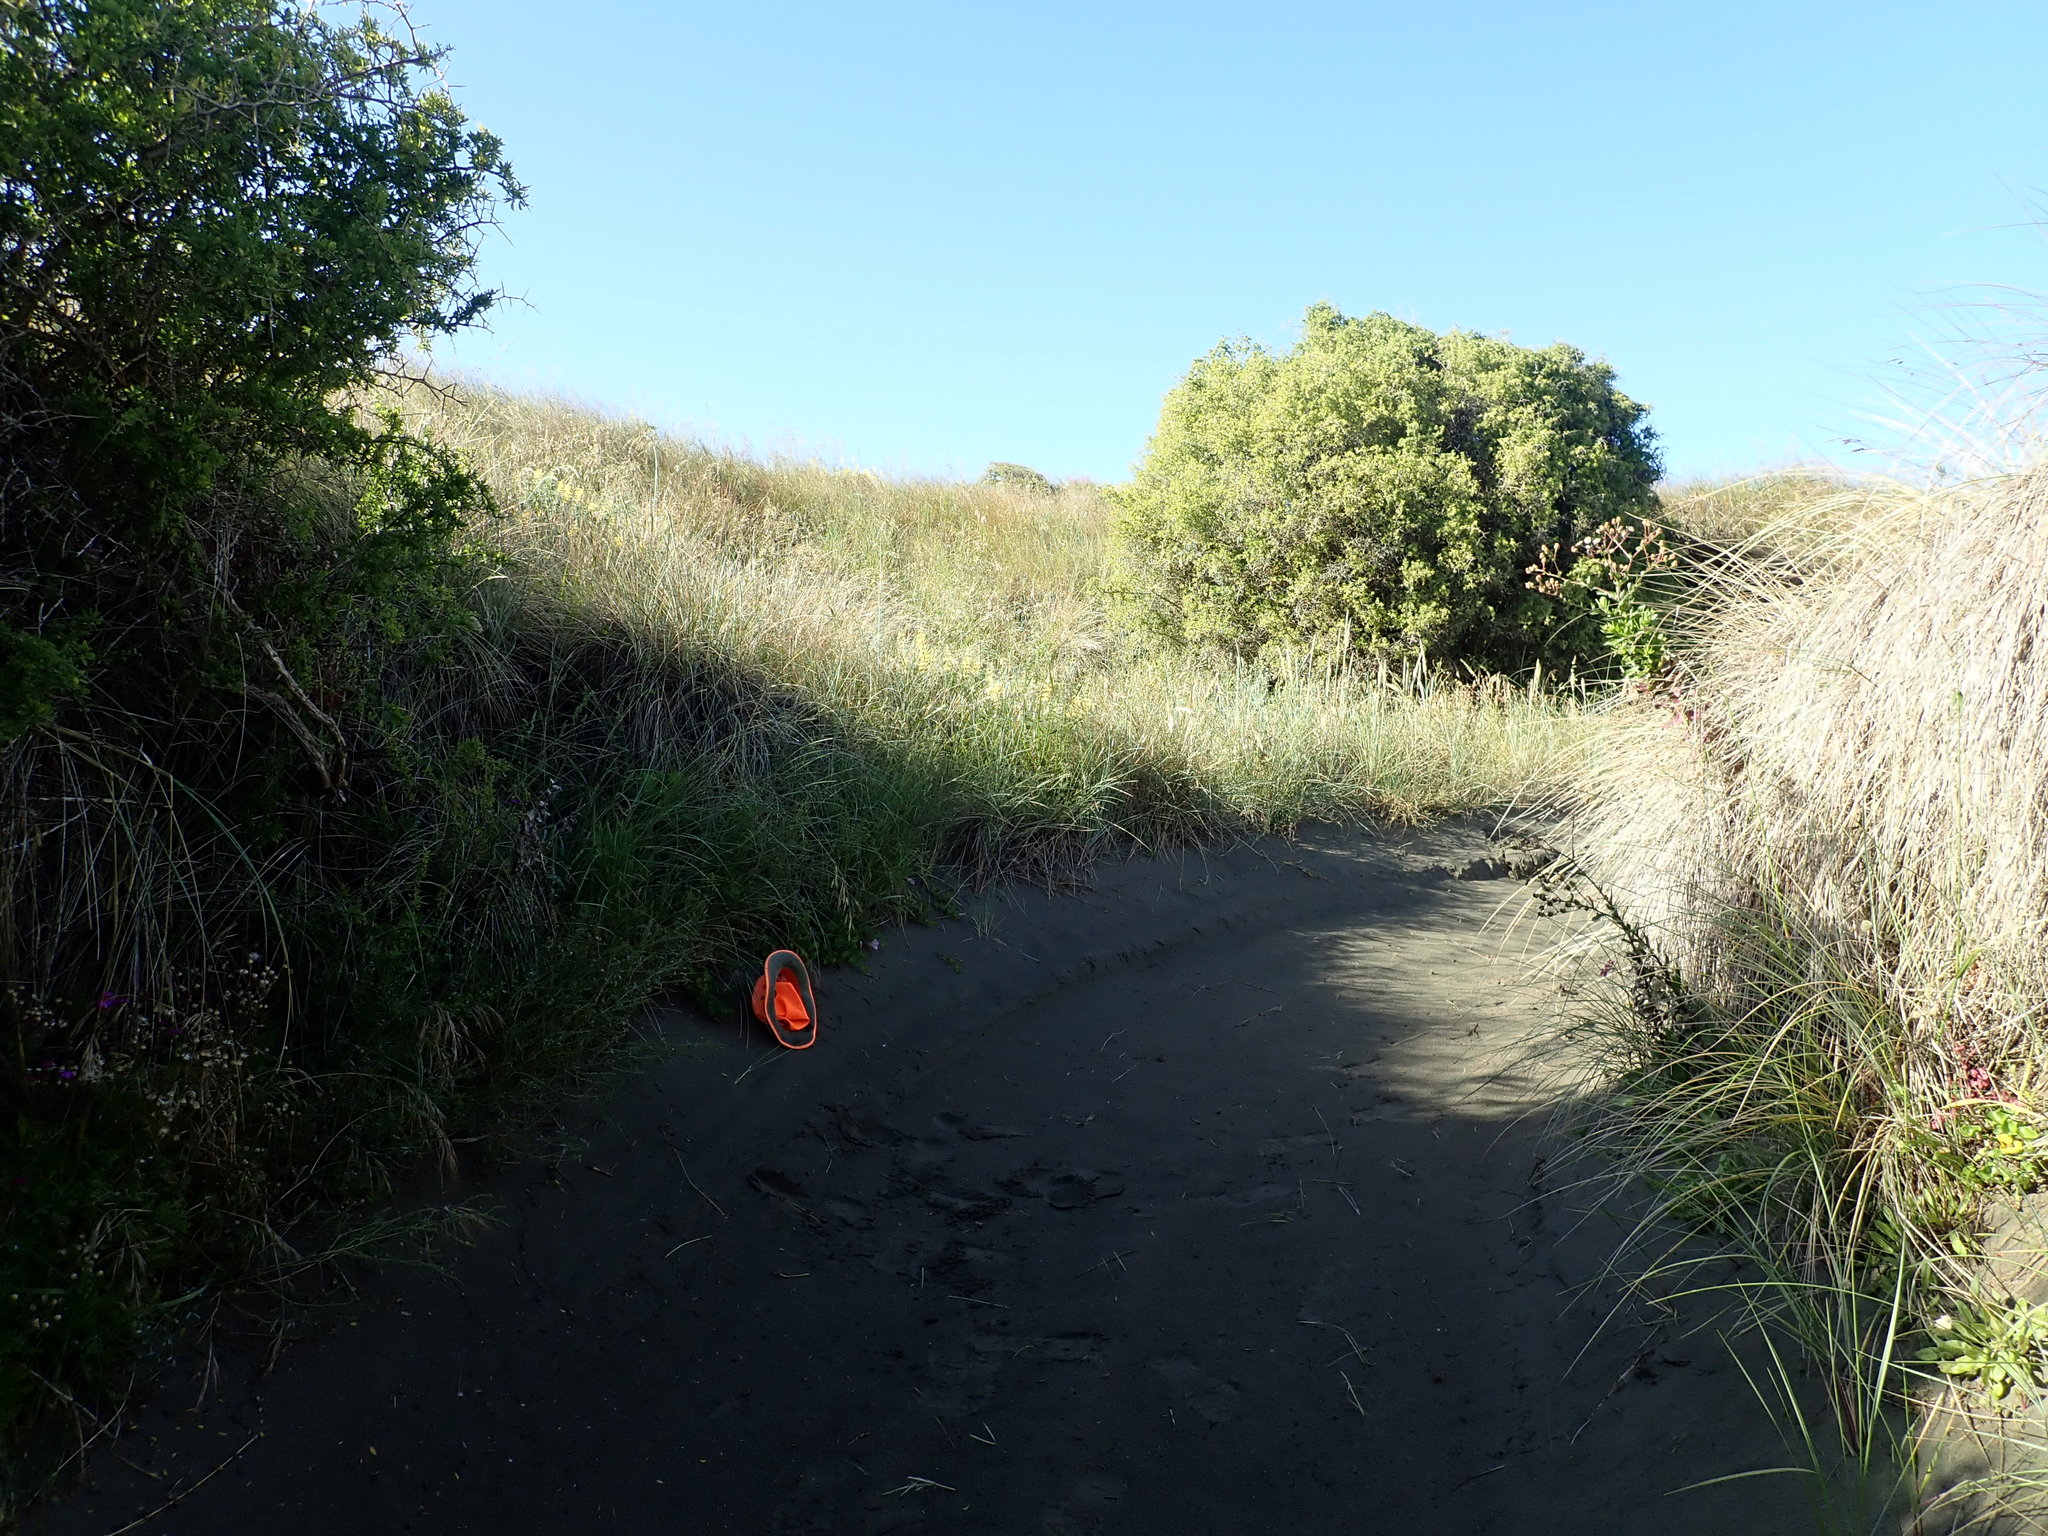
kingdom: Plantae
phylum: Tracheophyta
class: Magnoliopsida
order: Solanales
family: Convolvulaceae
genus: Calystegia
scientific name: Calystegia soldanella
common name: Sea bindweed
